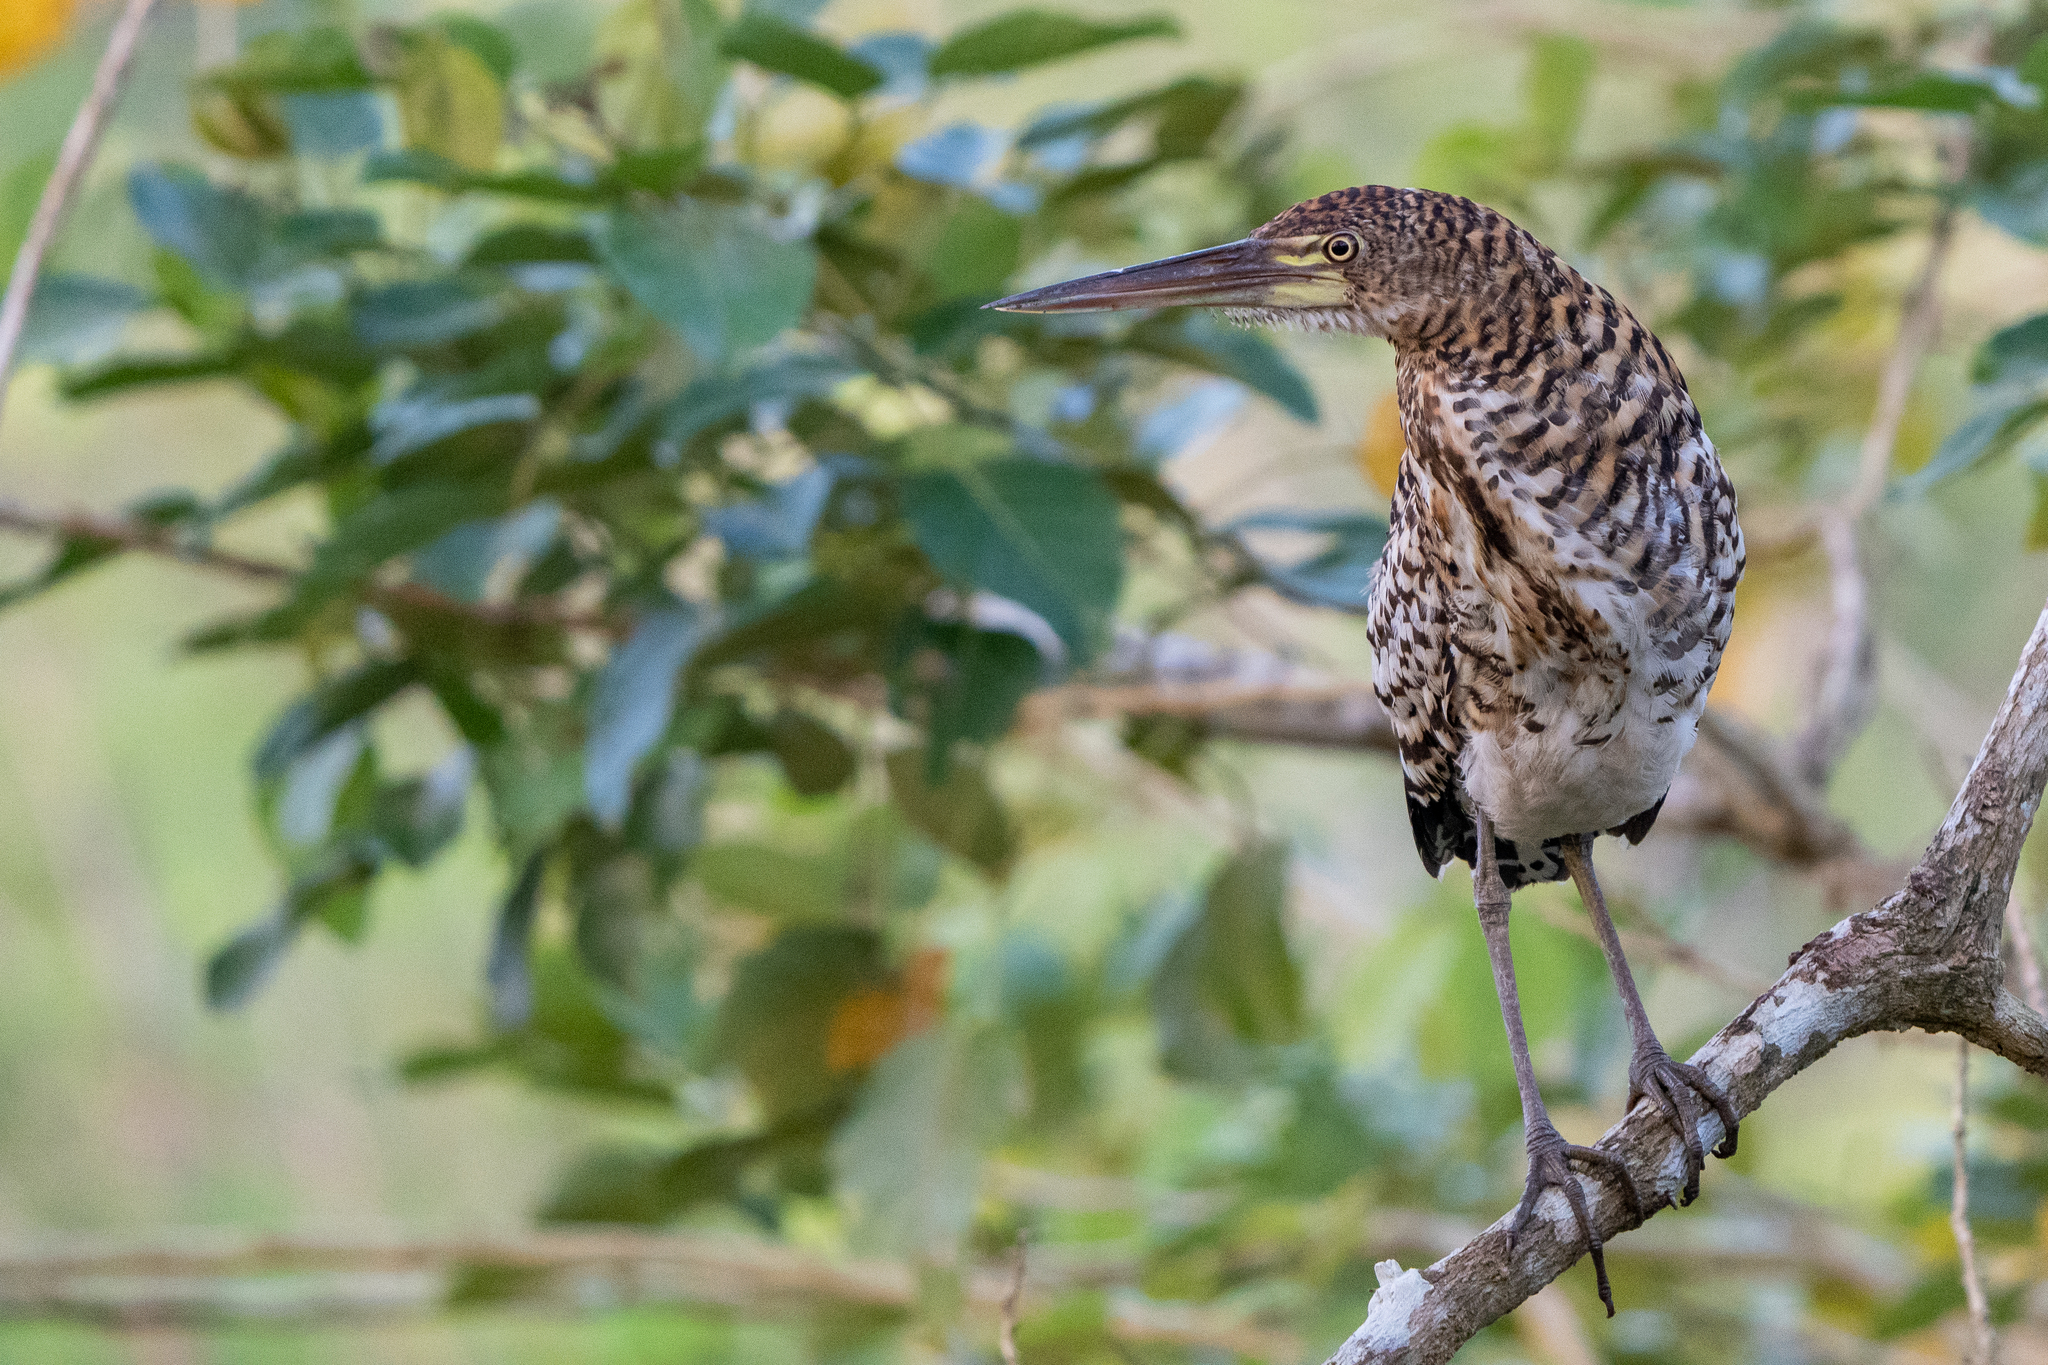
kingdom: Animalia
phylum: Chordata
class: Aves
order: Pelecaniformes
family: Ardeidae
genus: Tigrisoma
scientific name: Tigrisoma lineatum
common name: Rufescent tiger-heron
